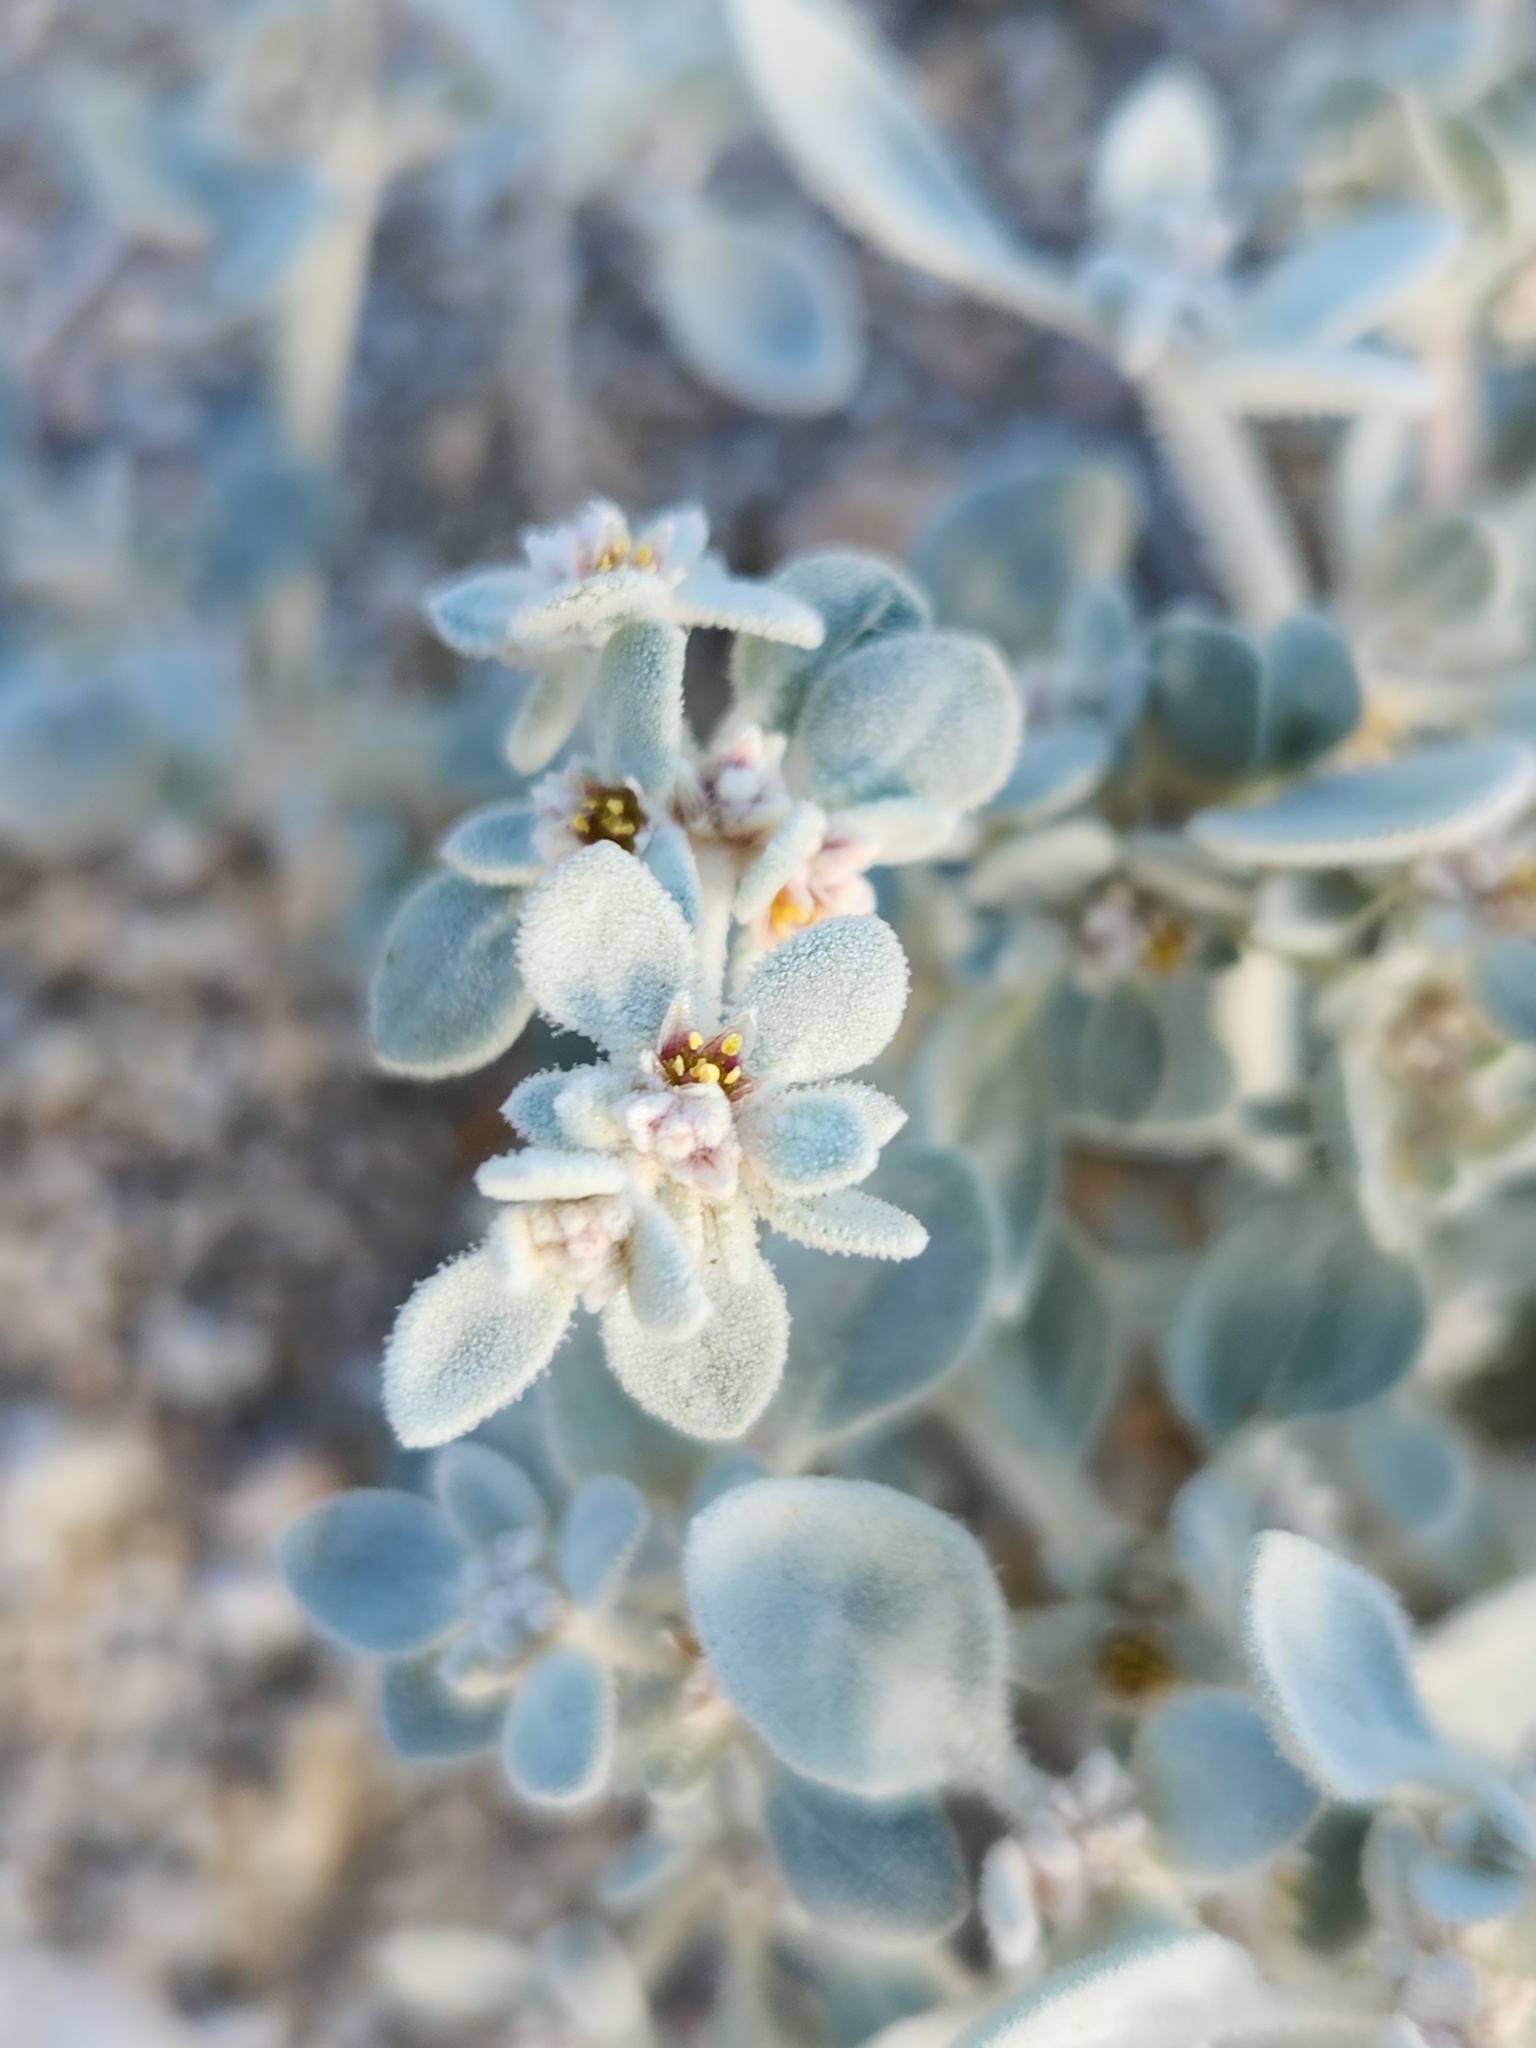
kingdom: Plantae
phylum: Tracheophyta
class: Magnoliopsida
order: Caryophyllales
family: Amaranthaceae
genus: Tidestromia
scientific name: Tidestromia suffruticosa
